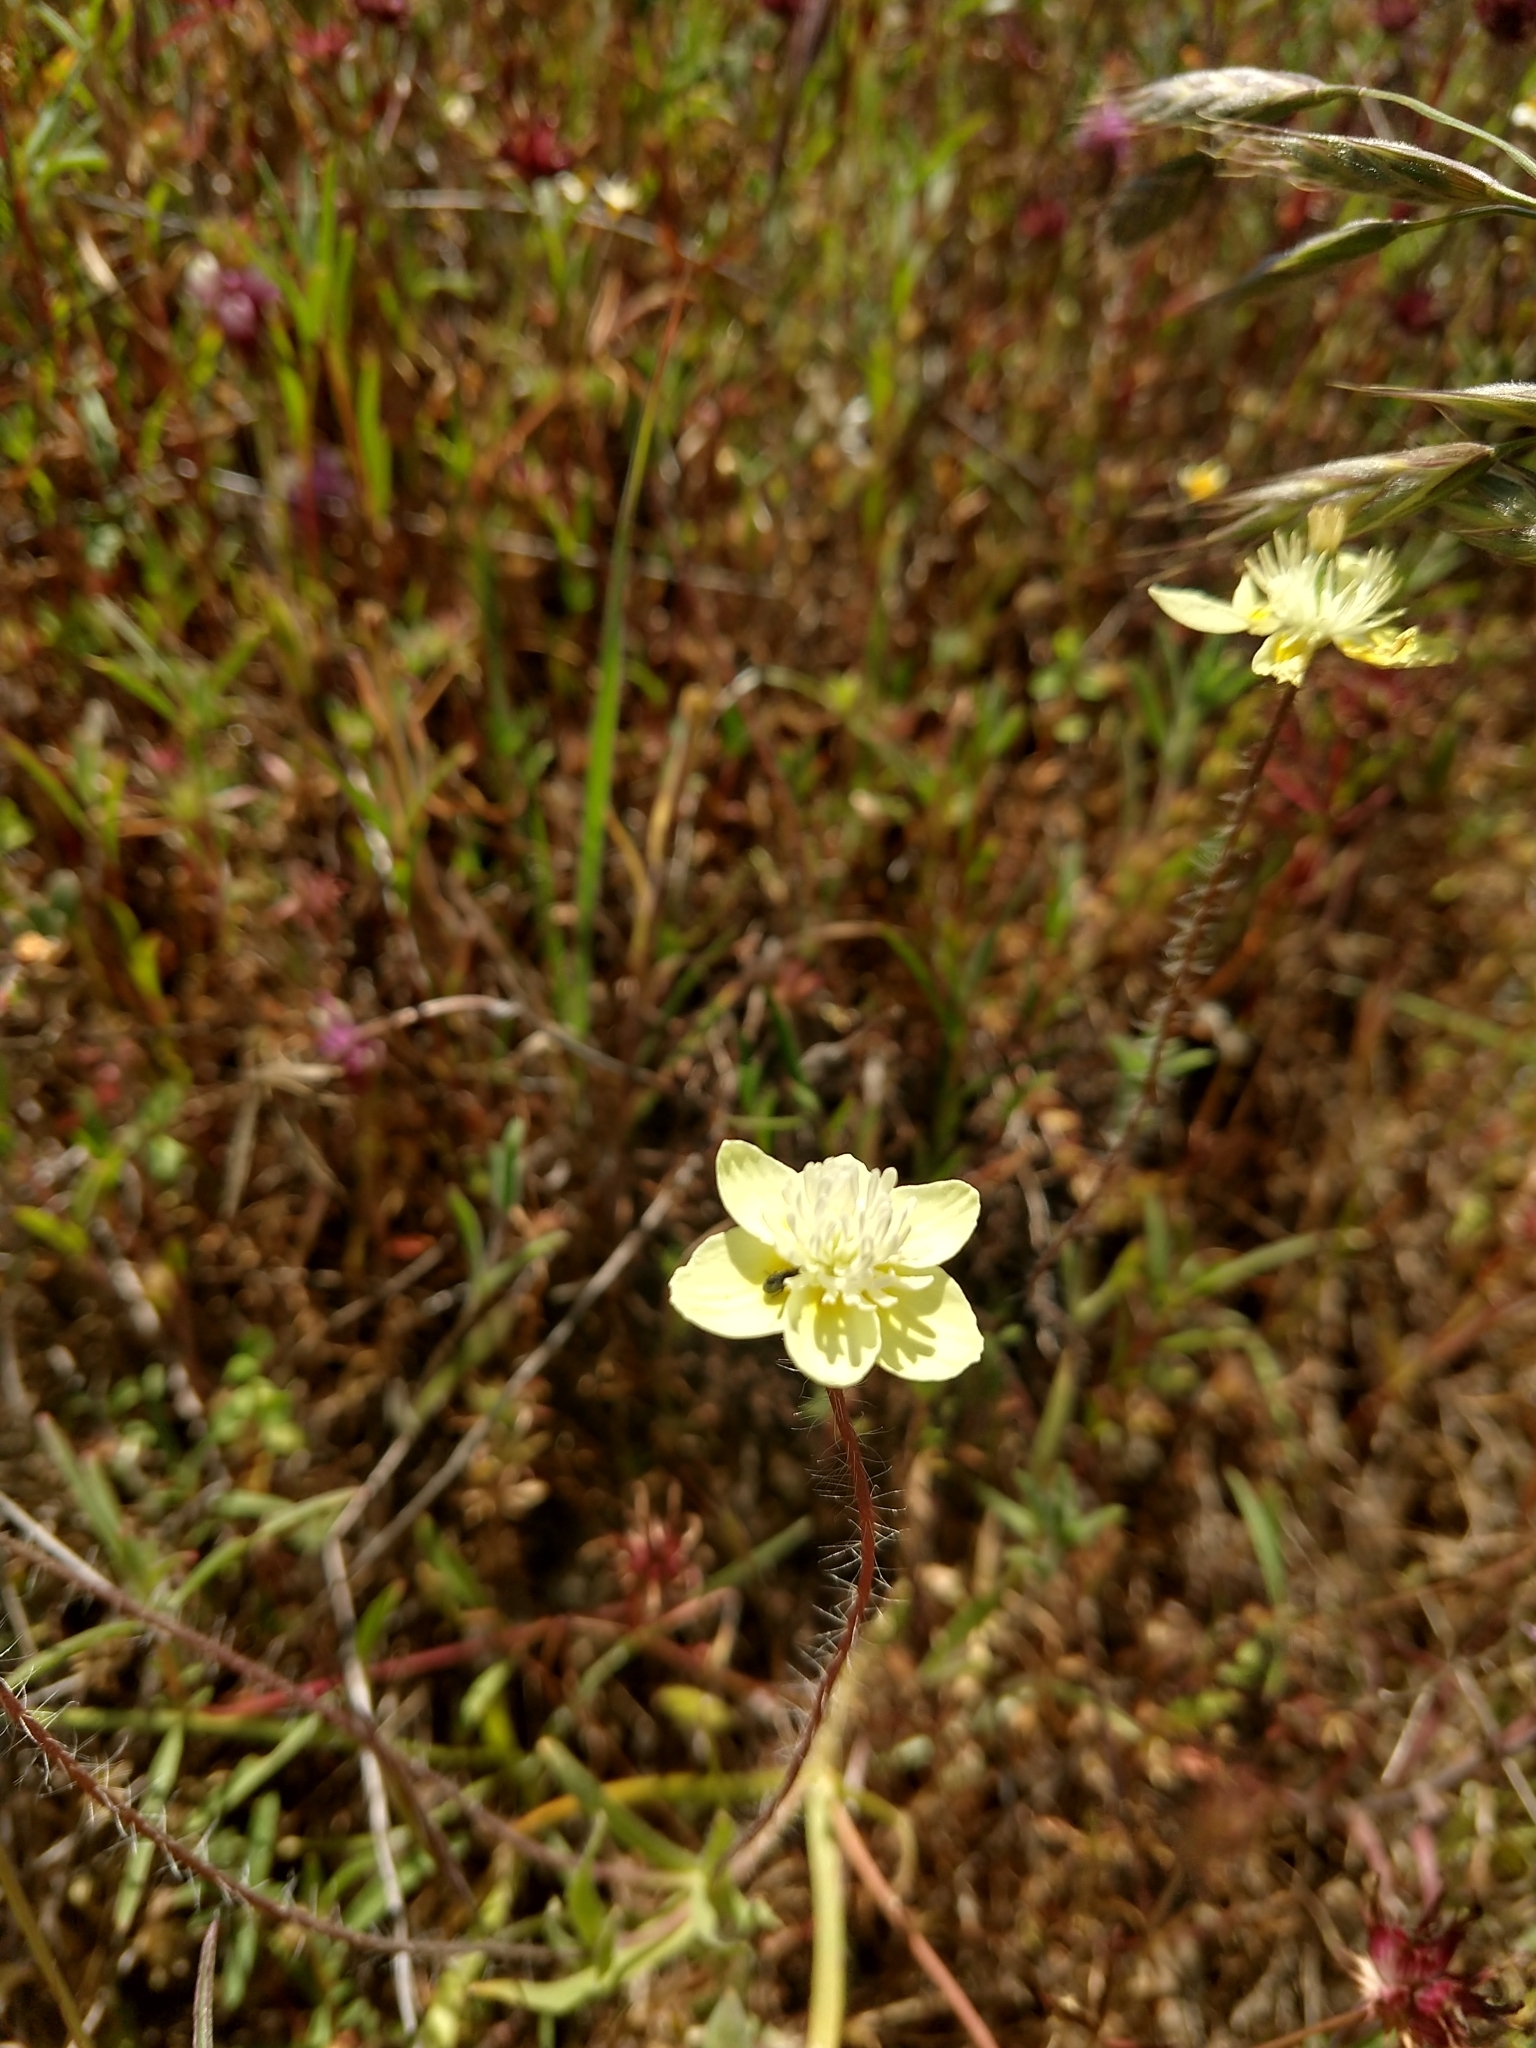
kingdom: Plantae
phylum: Tracheophyta
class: Magnoliopsida
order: Ranunculales
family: Papaveraceae
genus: Platystemon
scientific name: Platystemon californicus
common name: Cream-cups
